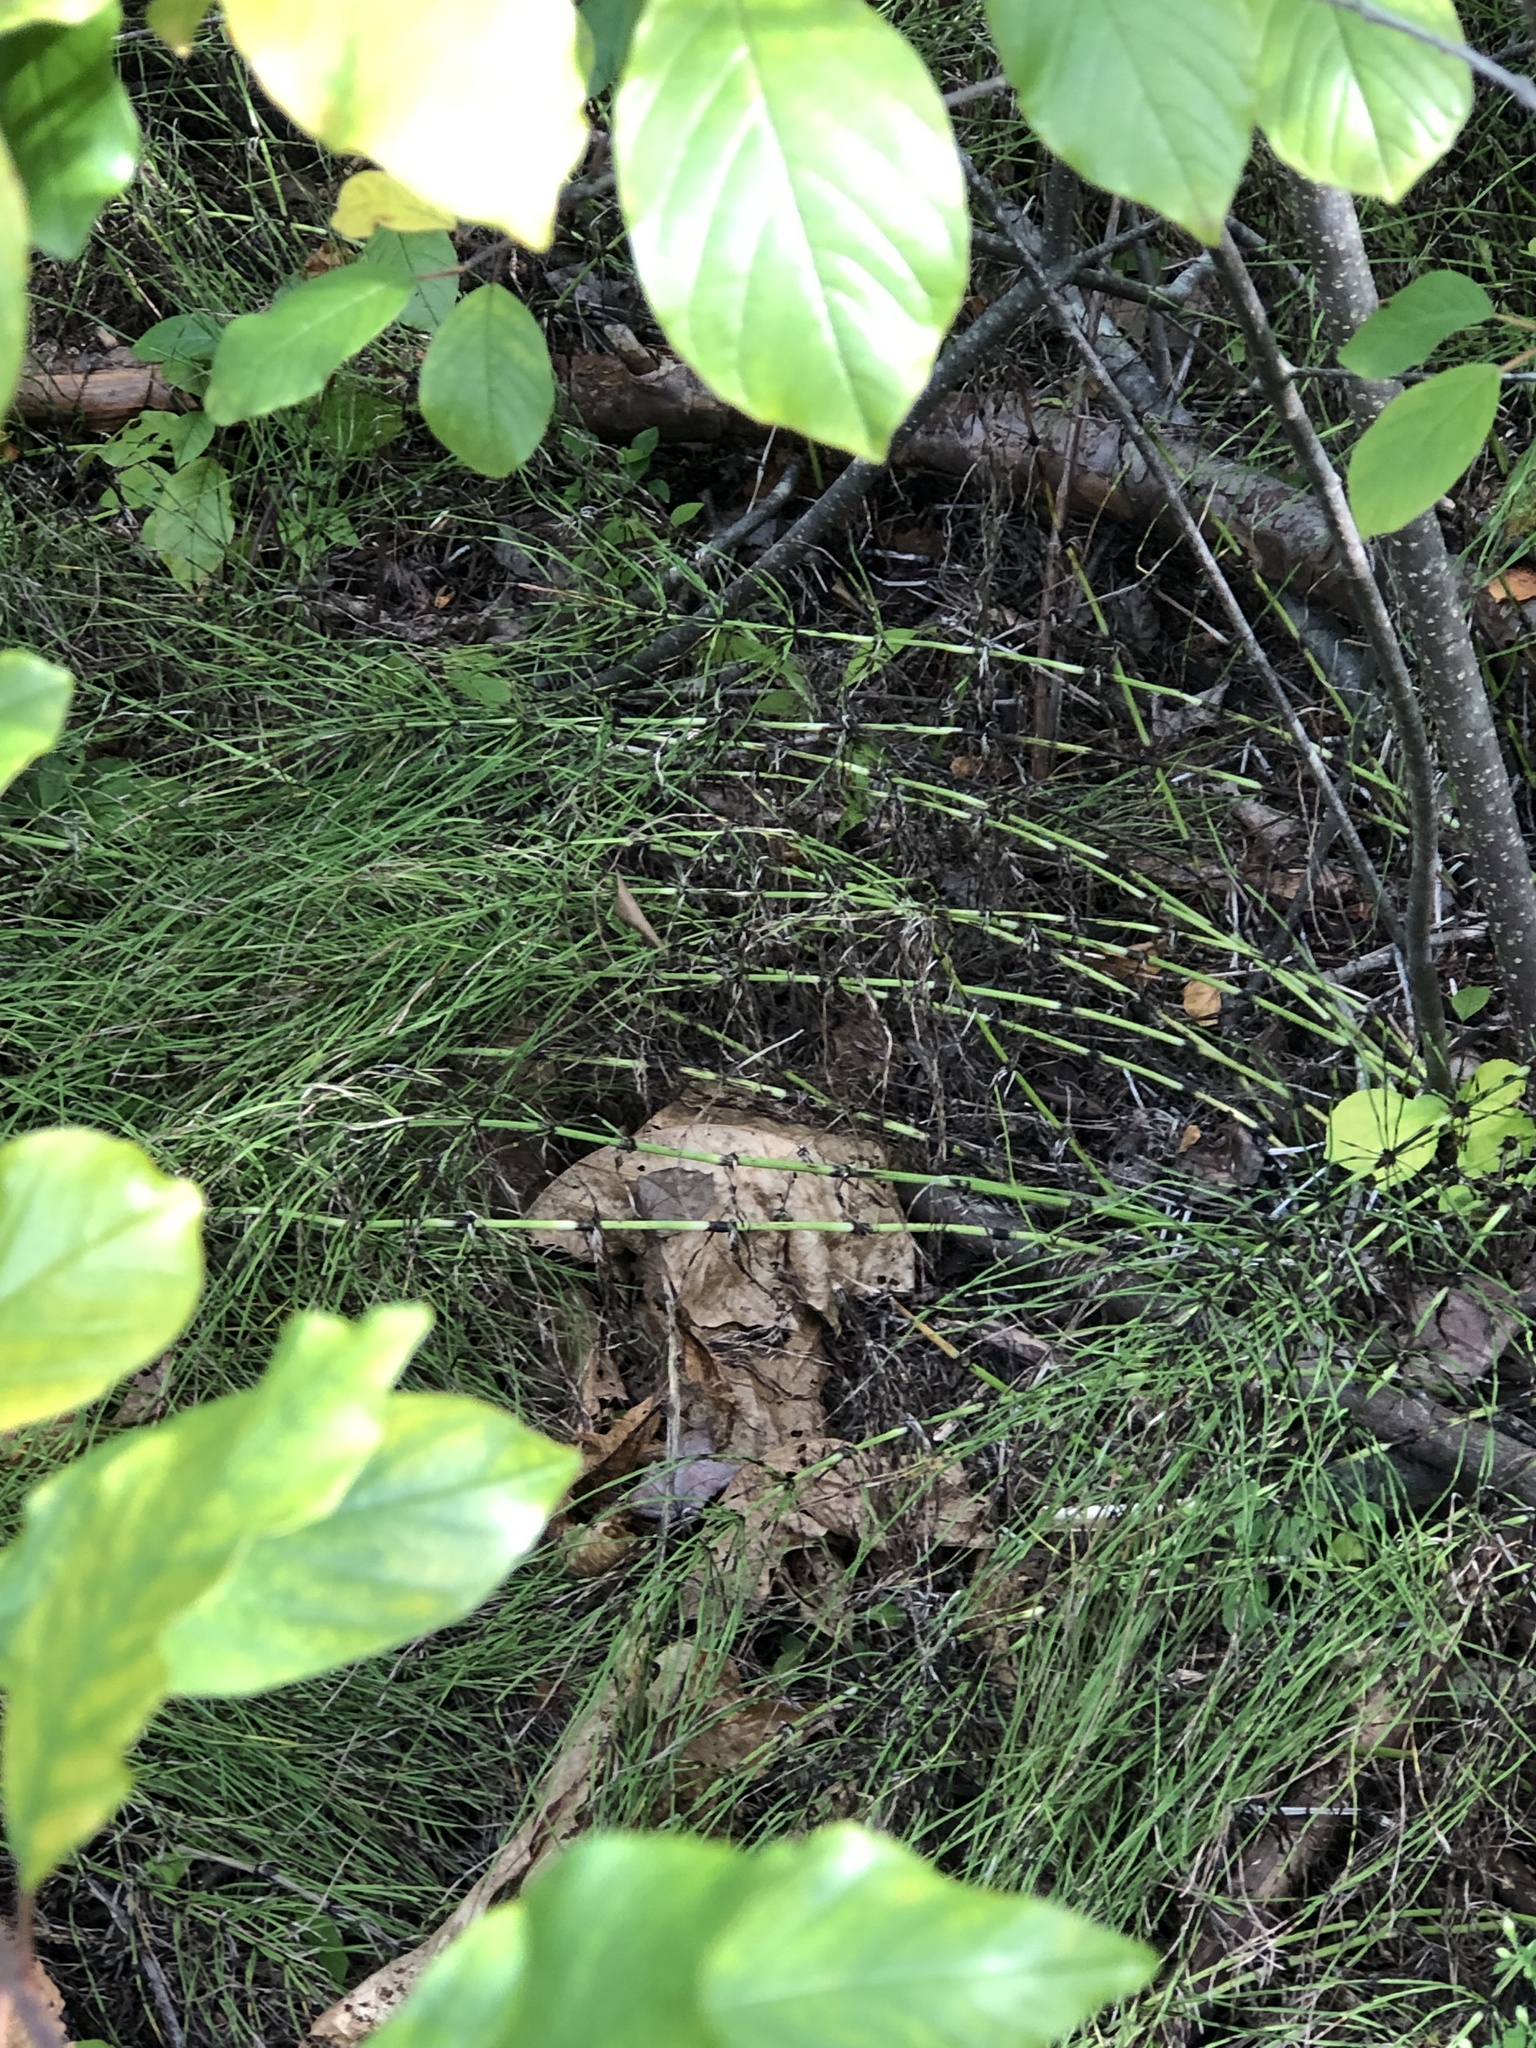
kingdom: Plantae
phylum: Tracheophyta
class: Polypodiopsida
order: Equisetales
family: Equisetaceae
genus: Equisetum
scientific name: Equisetum arvense
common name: Field horsetail
